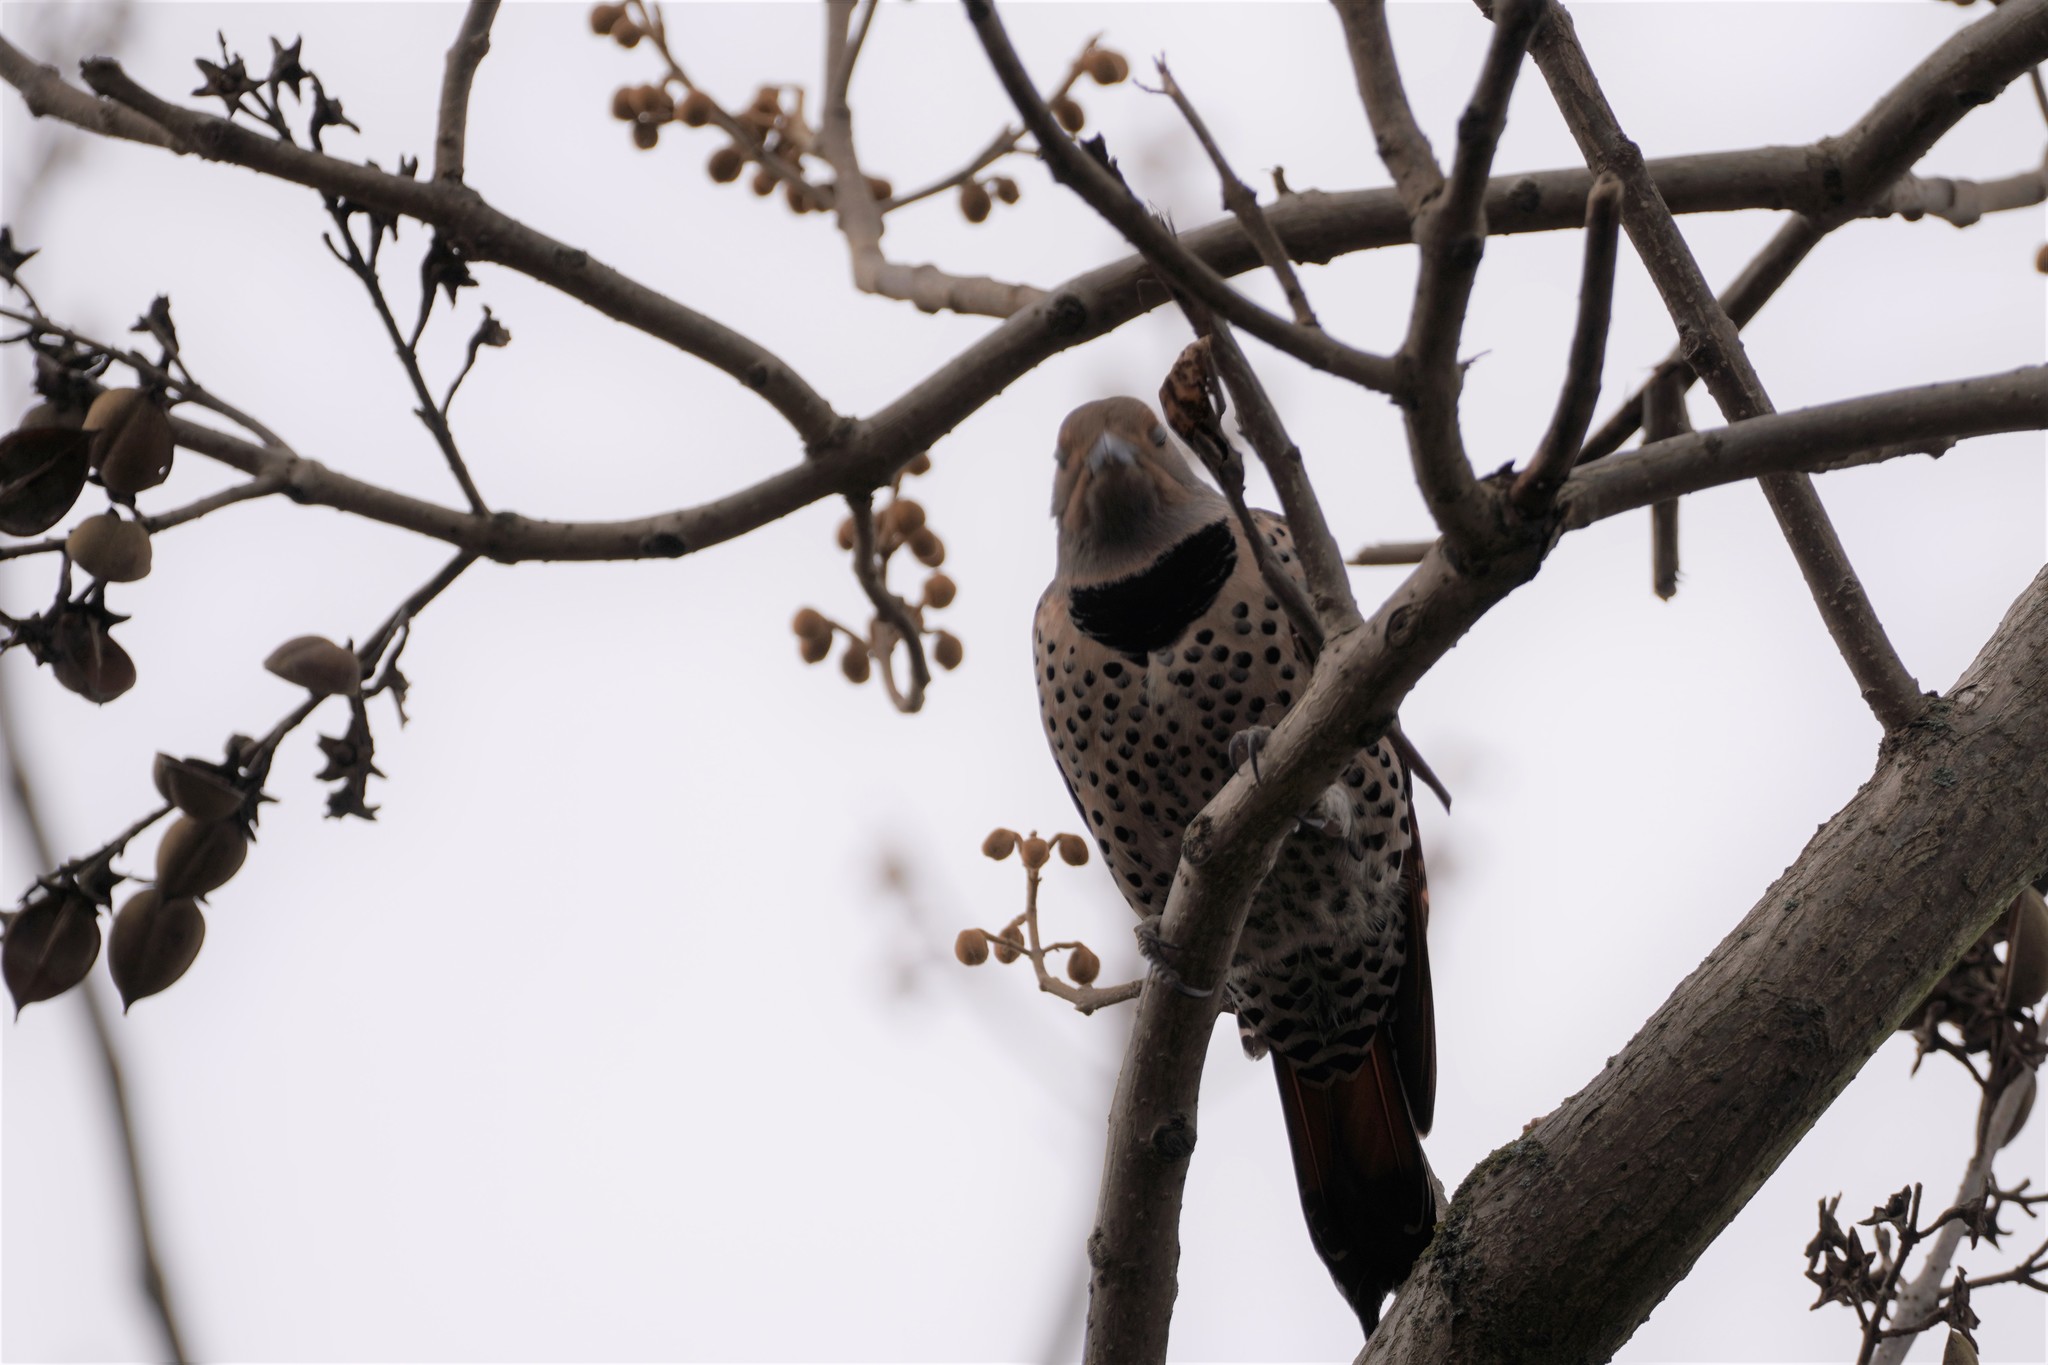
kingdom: Animalia
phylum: Chordata
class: Aves
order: Piciformes
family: Picidae
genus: Colaptes
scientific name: Colaptes auratus
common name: Northern flicker
